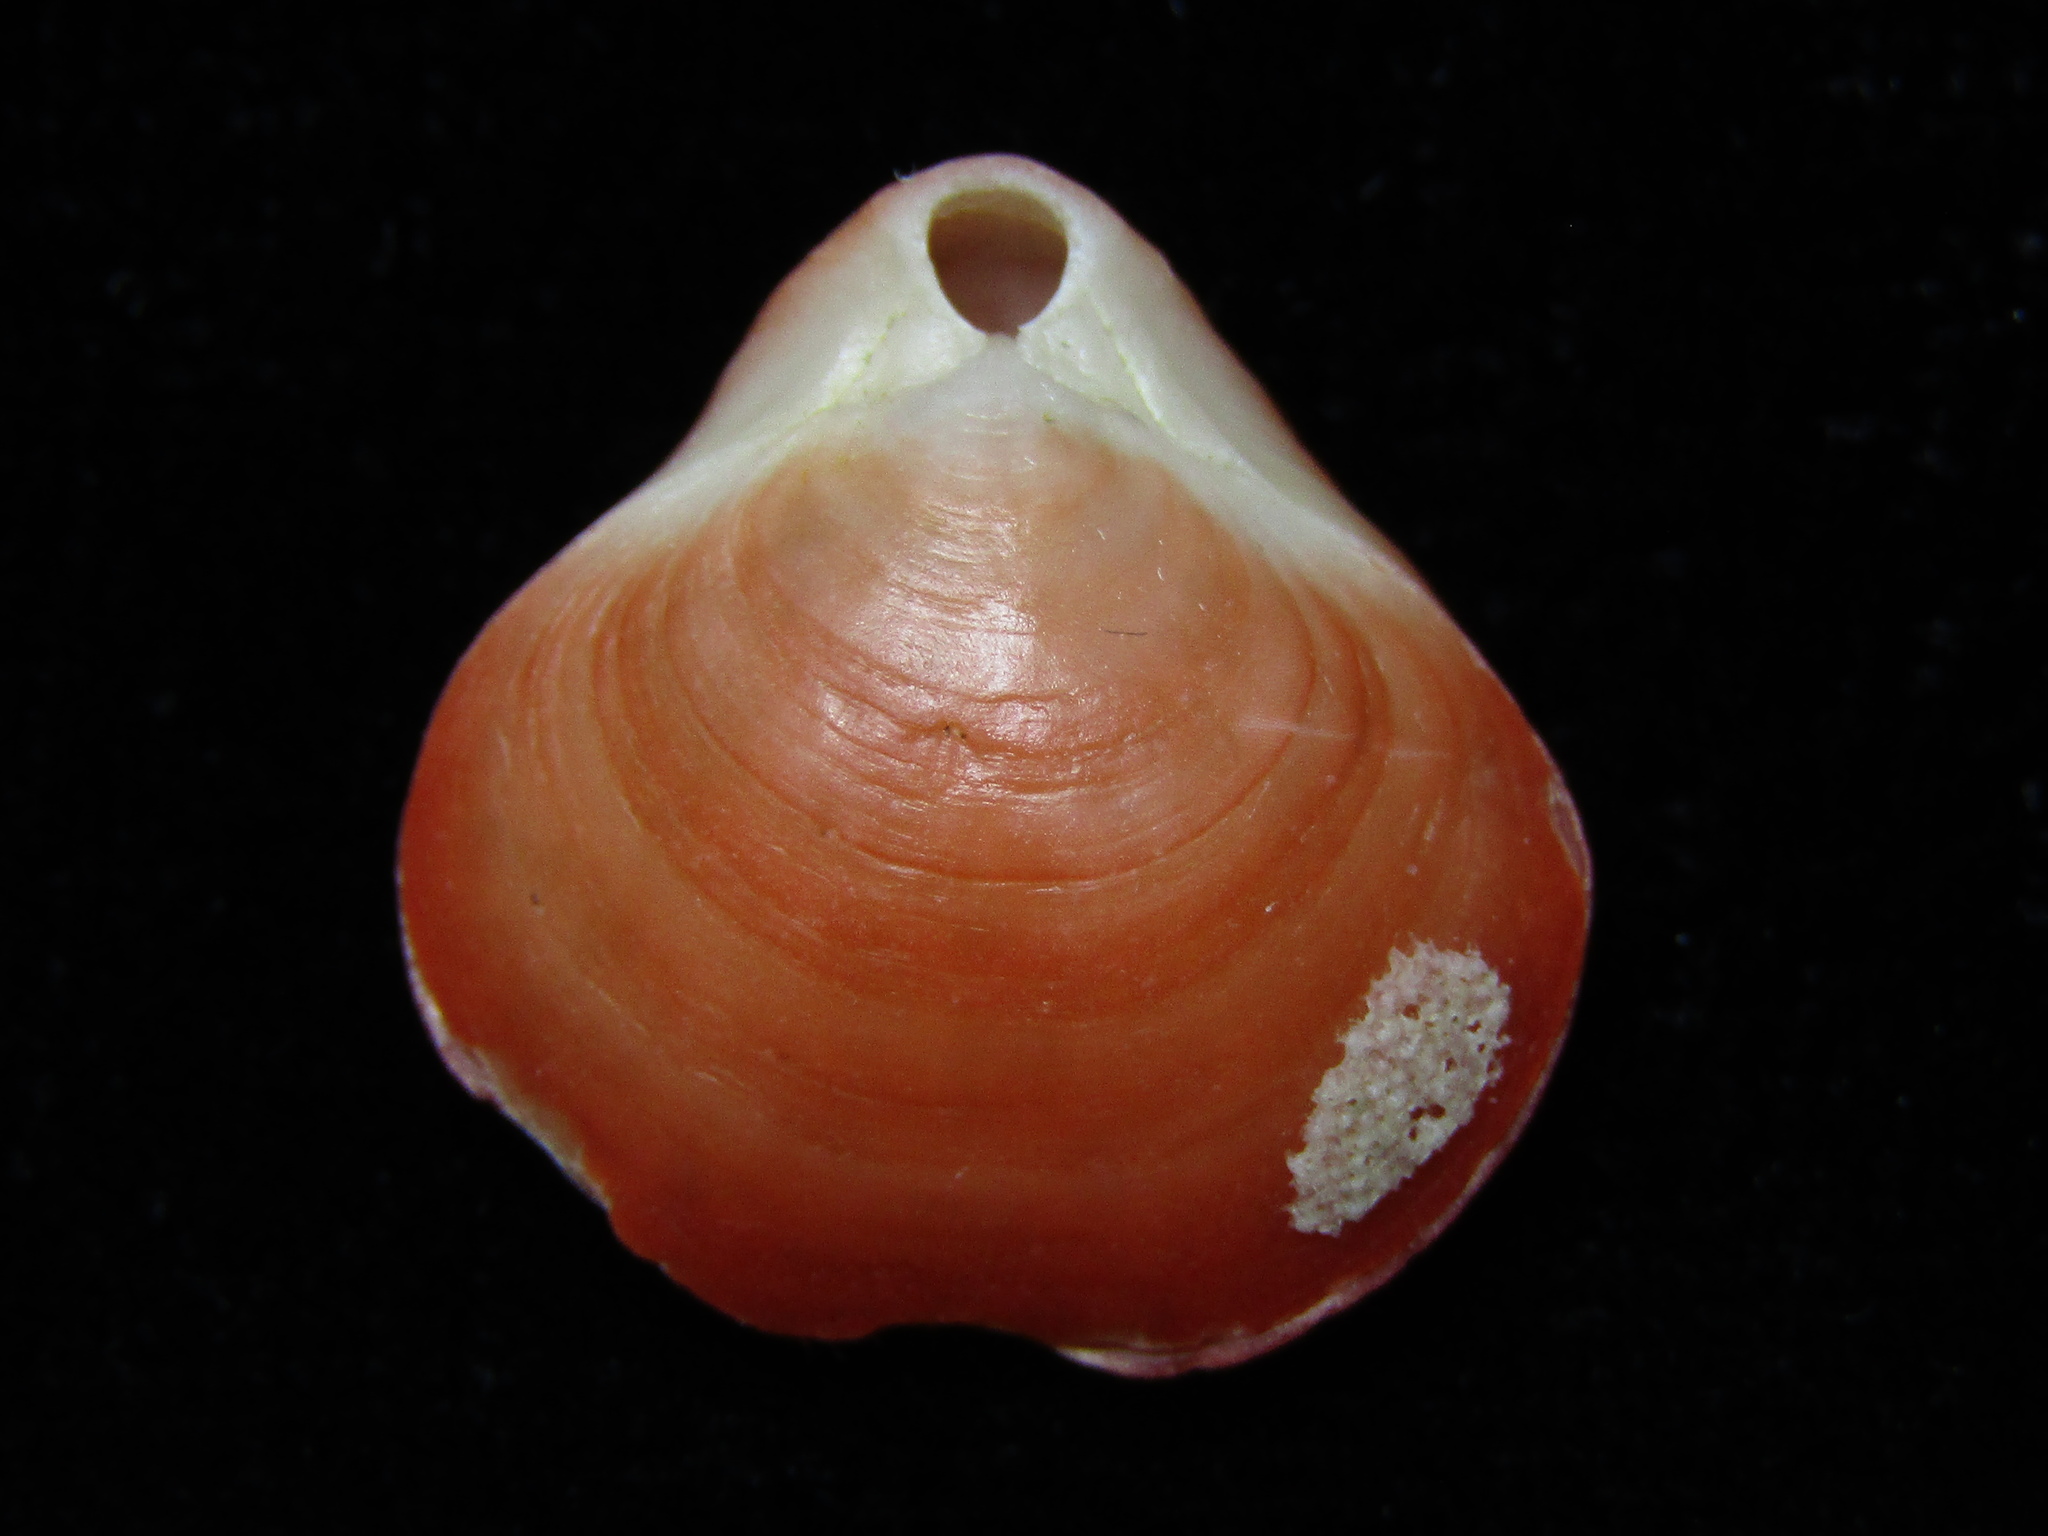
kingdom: Animalia
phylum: Brachiopoda
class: Rhynchonellata
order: Terebratulida
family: Terebratellidae
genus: Calloria
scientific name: Calloria inconspicua
